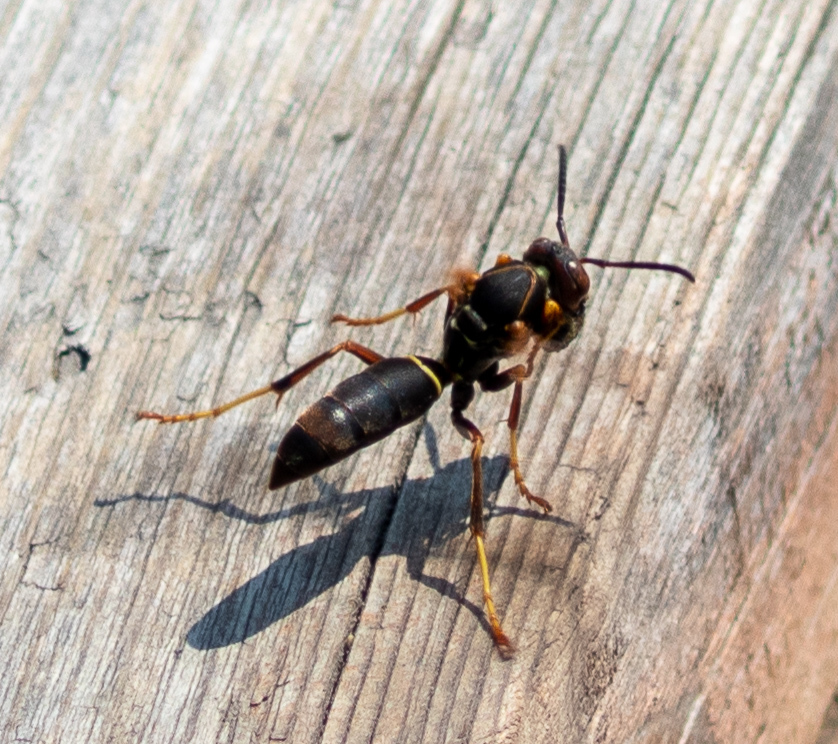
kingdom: Animalia
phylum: Arthropoda
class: Insecta
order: Hymenoptera
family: Eumenidae
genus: Polistes
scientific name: Polistes fuscatus
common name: Dark paper wasp
